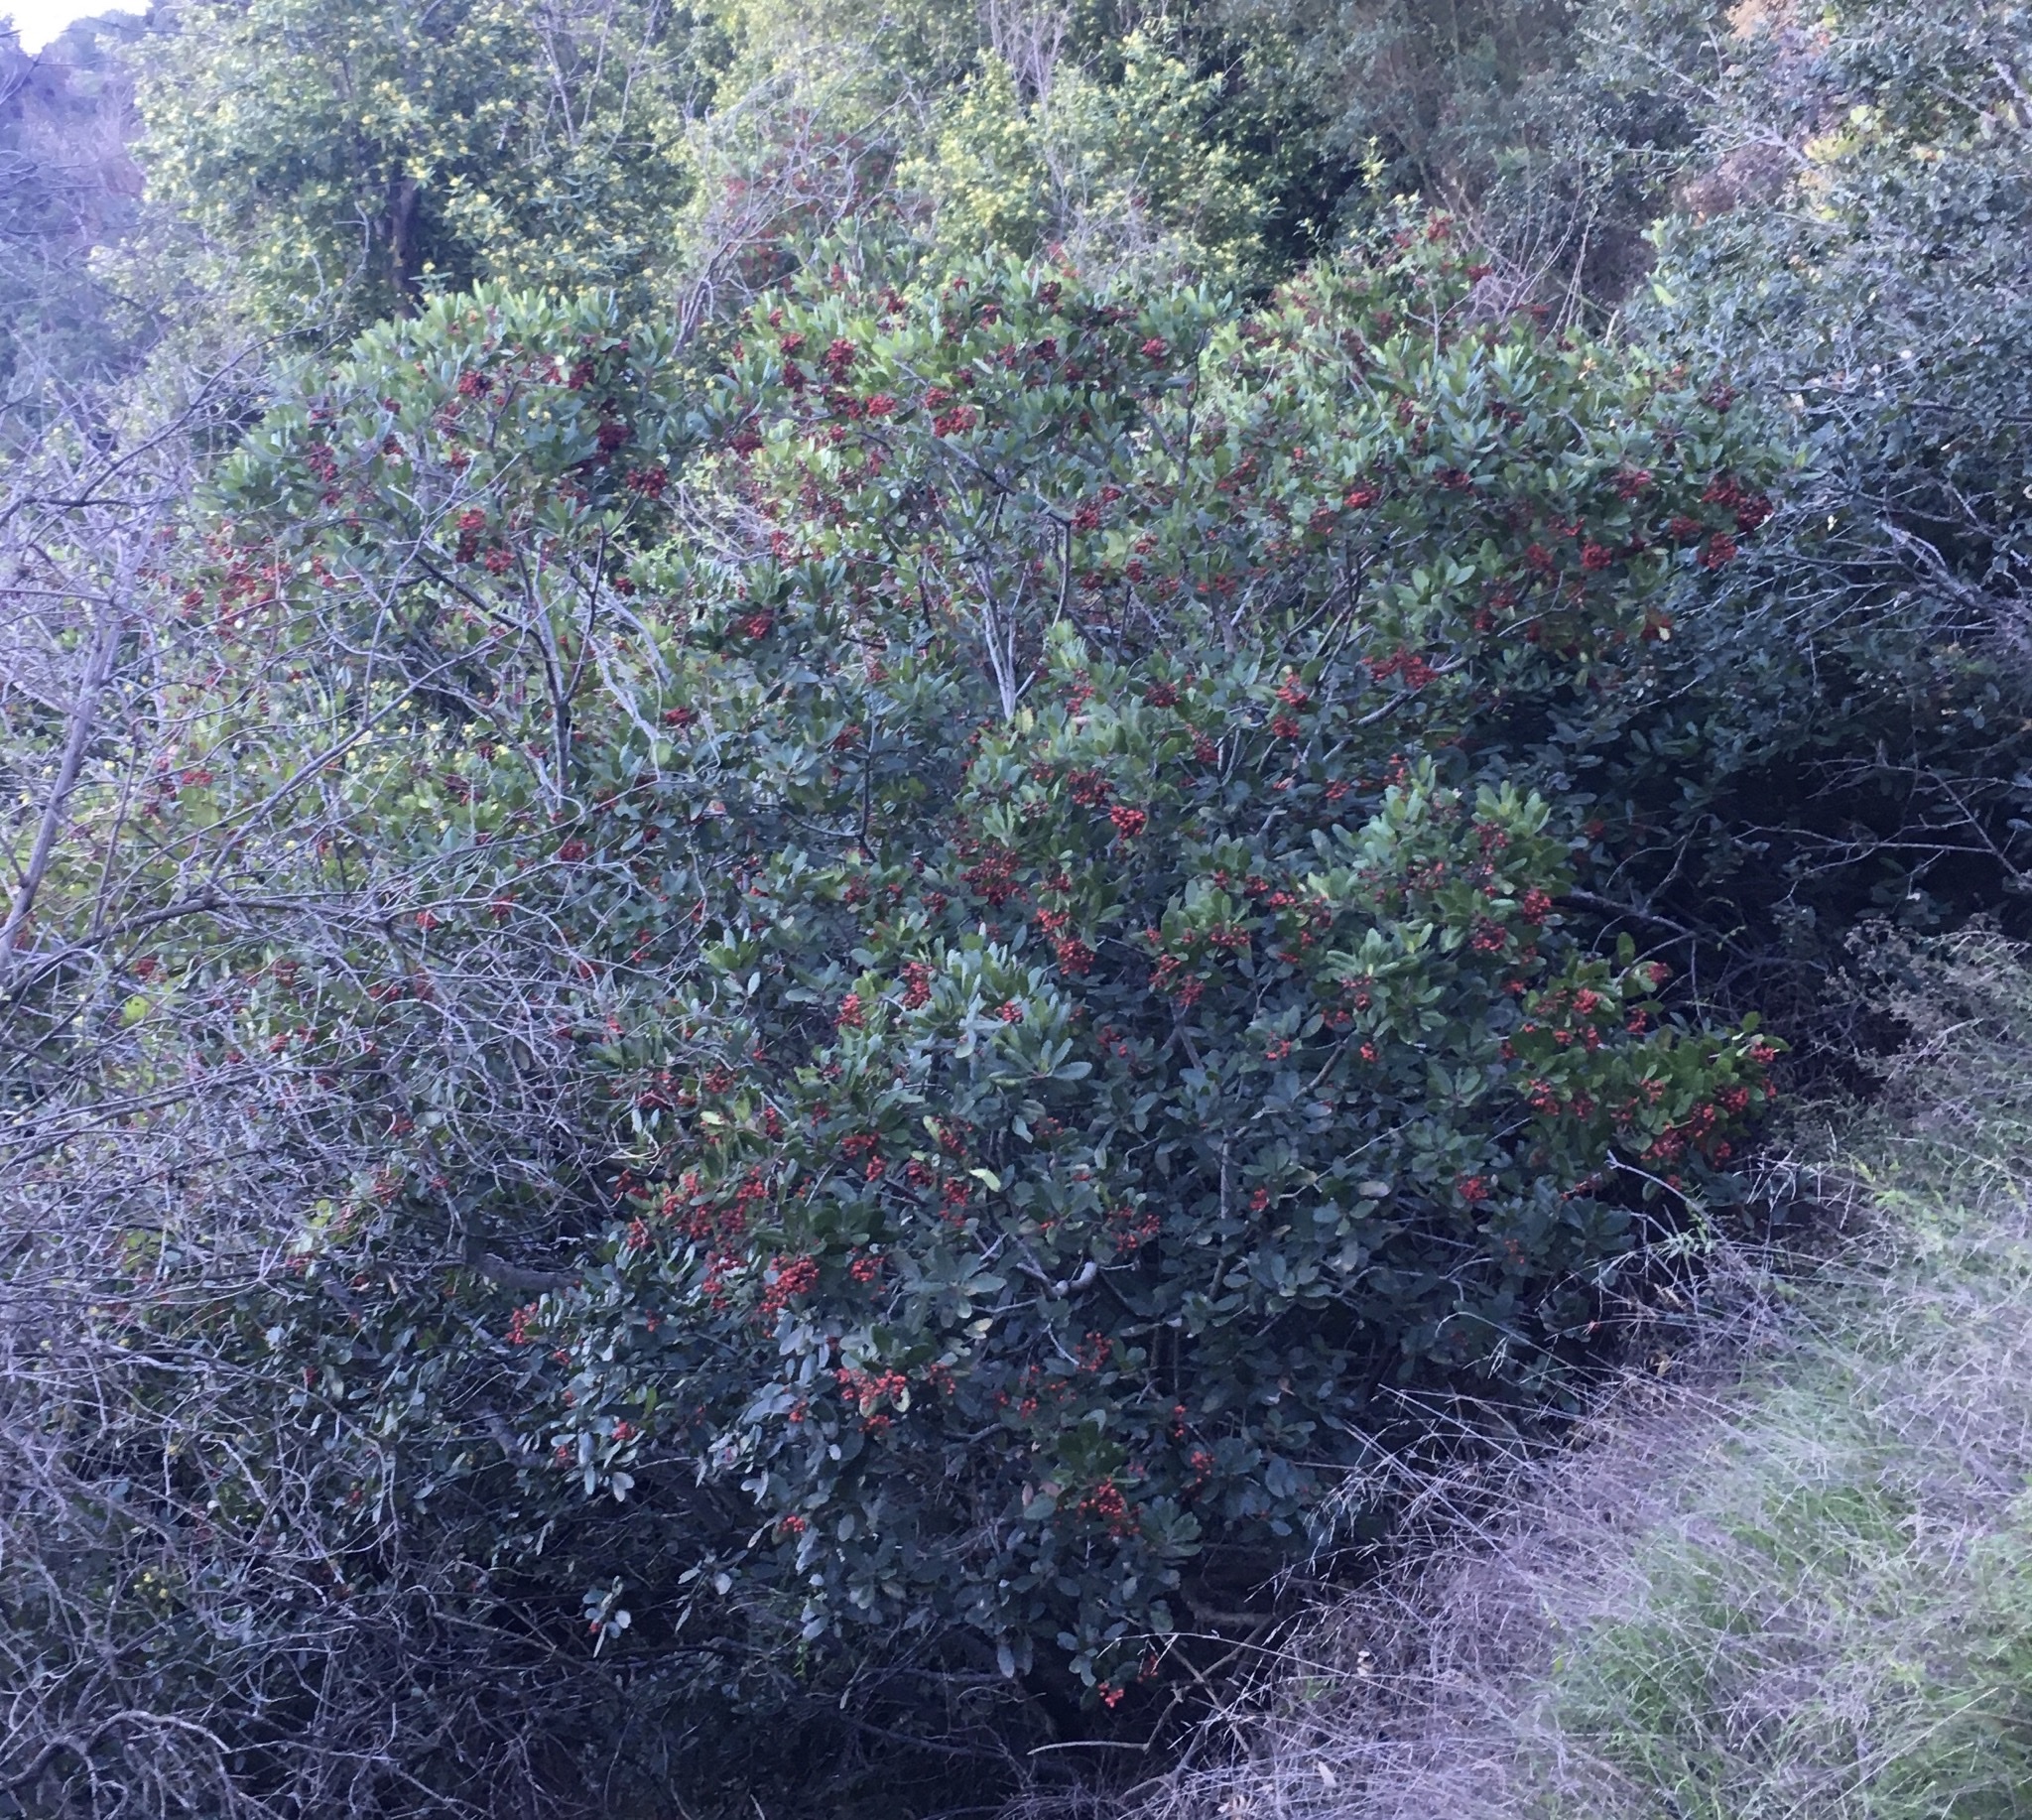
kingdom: Plantae
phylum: Tracheophyta
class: Magnoliopsida
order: Rosales
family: Rosaceae
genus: Heteromeles
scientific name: Heteromeles arbutifolia
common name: California-holly
